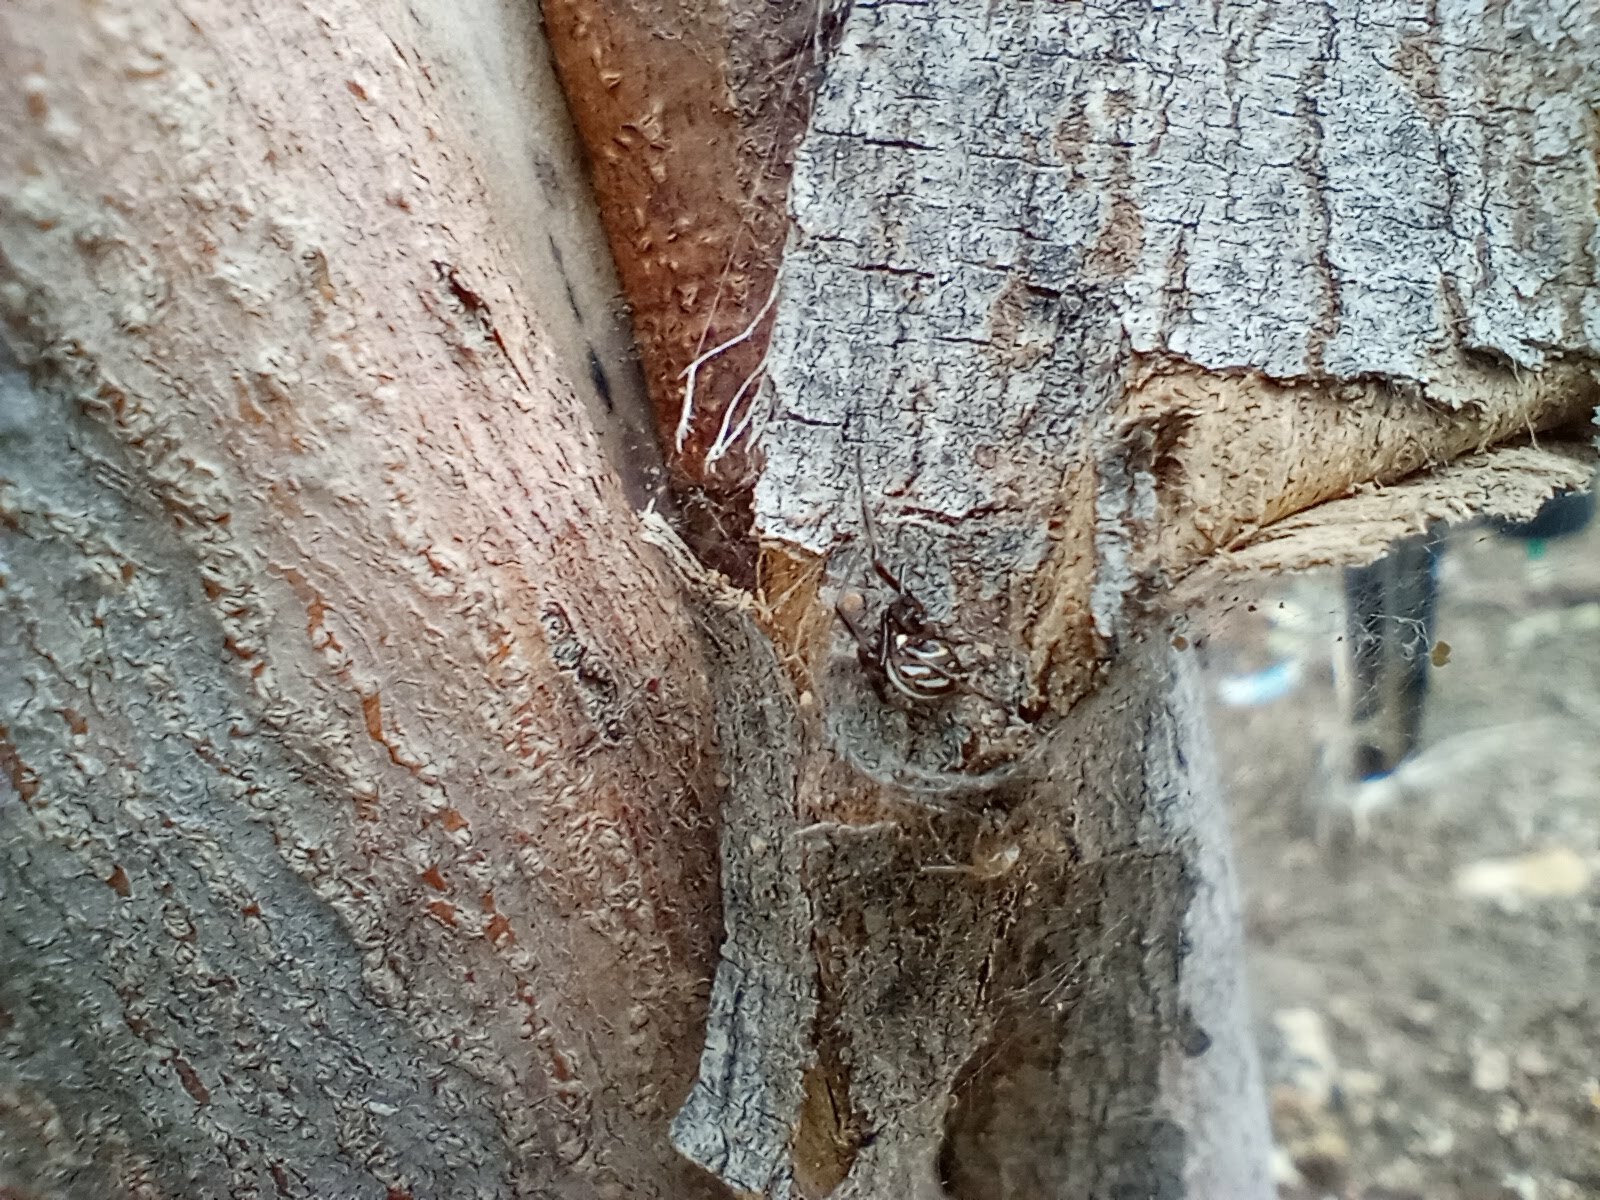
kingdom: Animalia
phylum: Arthropoda
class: Arachnida
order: Araneae
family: Theridiidae
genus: Latrodectus
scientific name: Latrodectus hesperus
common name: Western black widow
